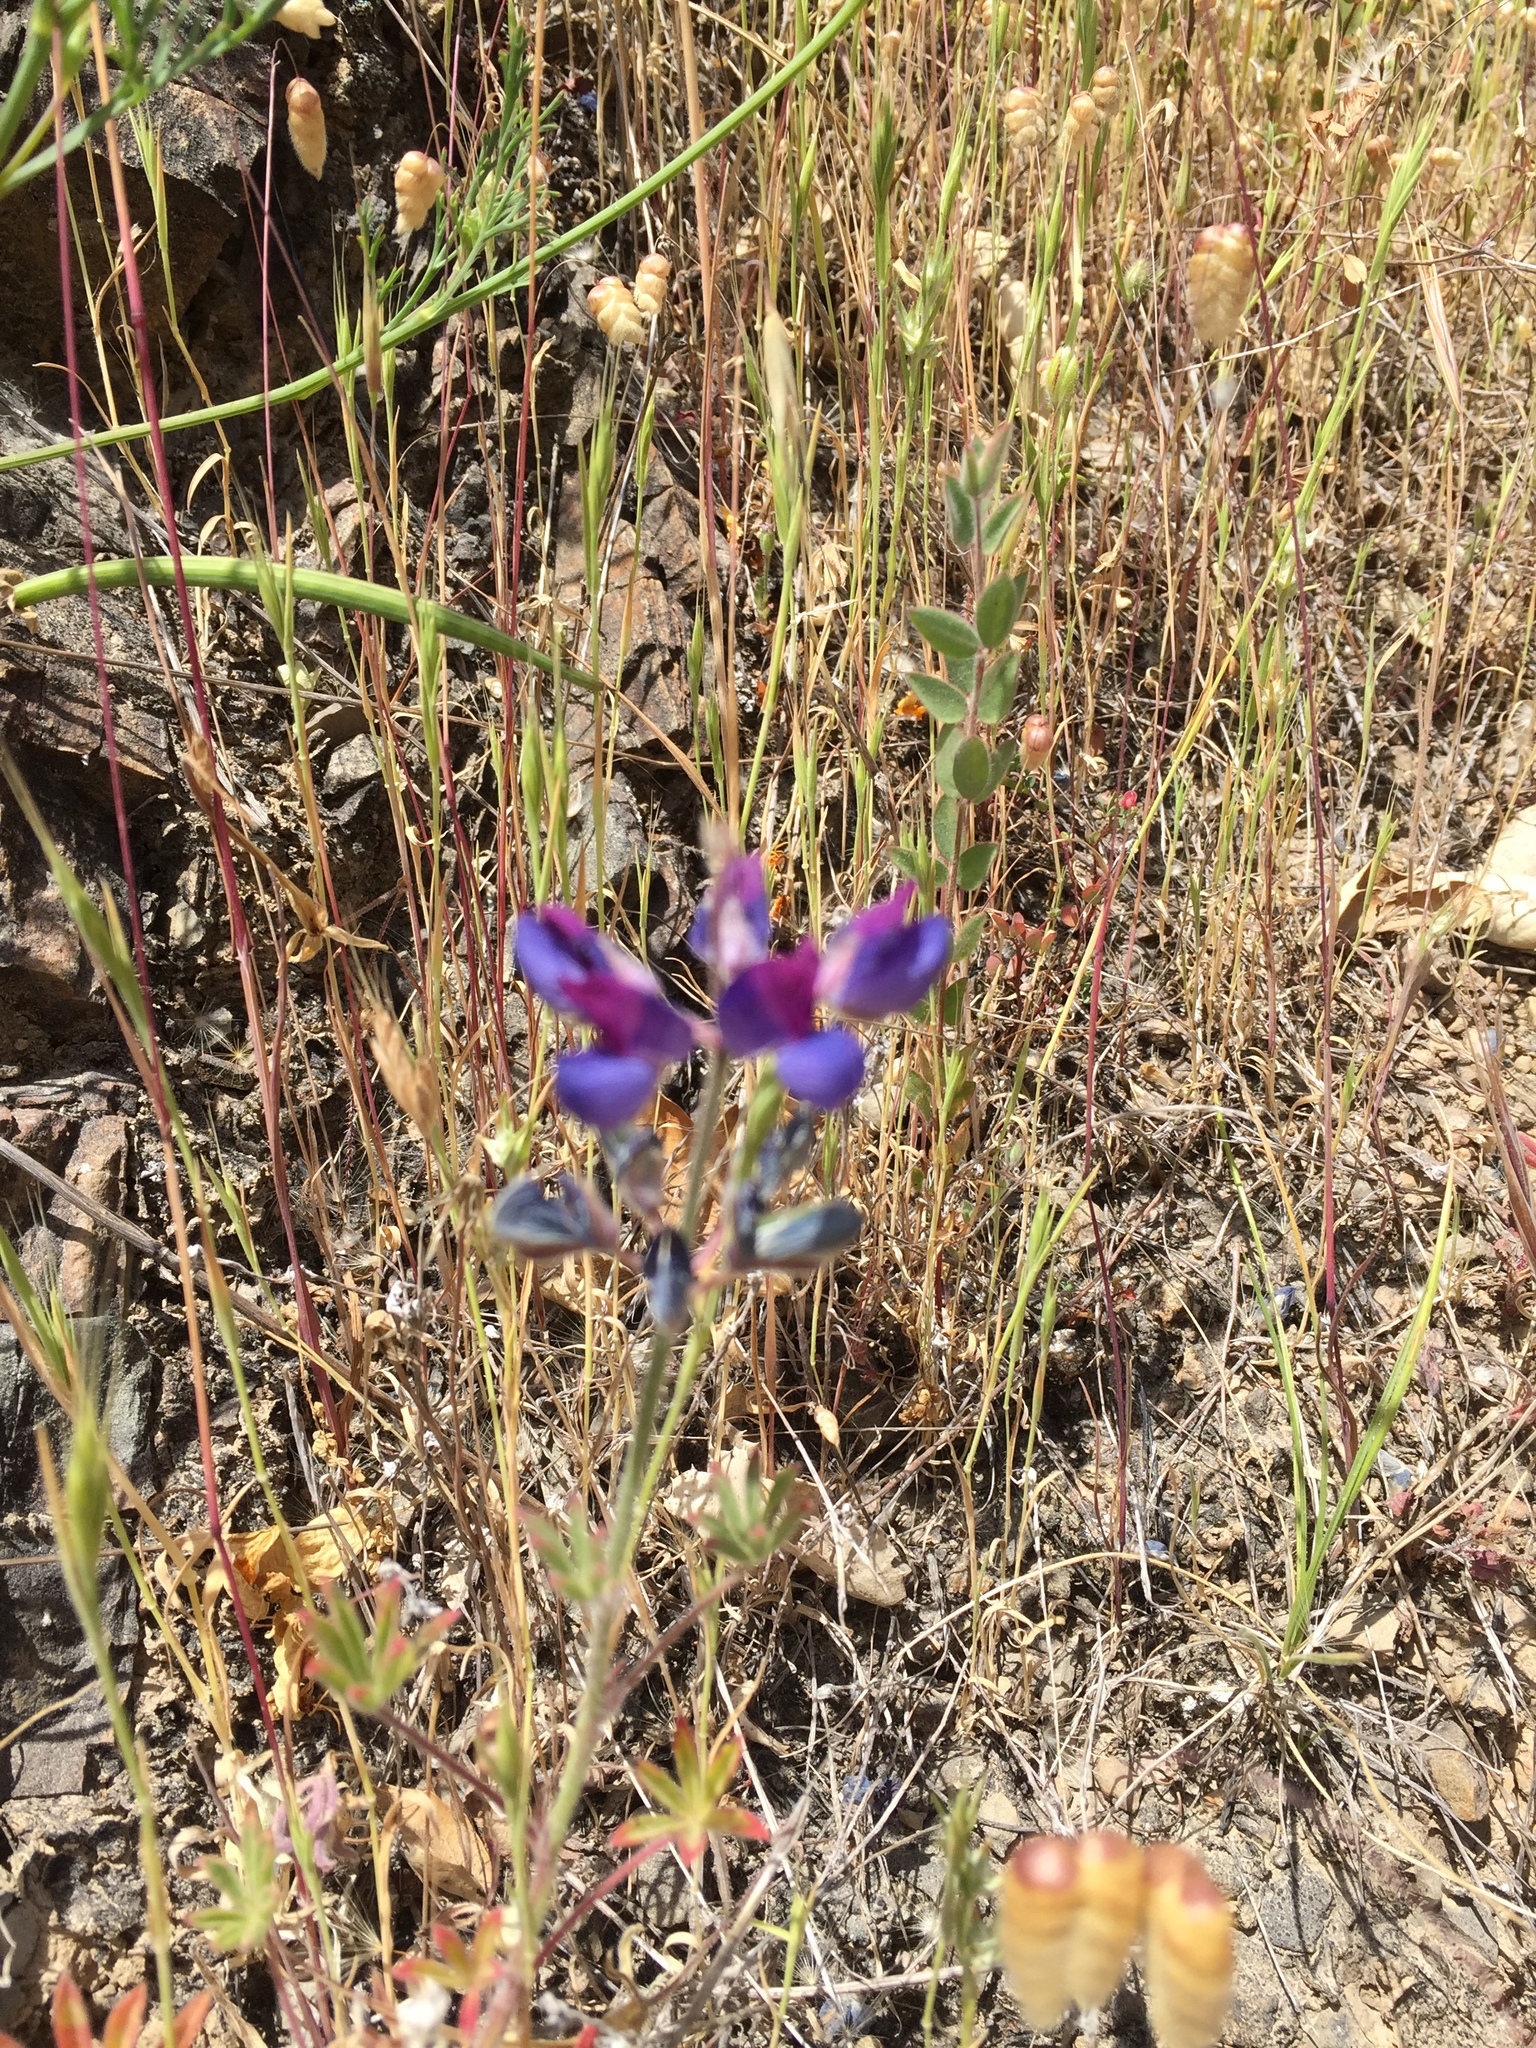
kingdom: Plantae
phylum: Tracheophyta
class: Magnoliopsida
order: Fabales
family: Fabaceae
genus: Lupinus
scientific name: Lupinus nanus
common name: Orean blue lupin
